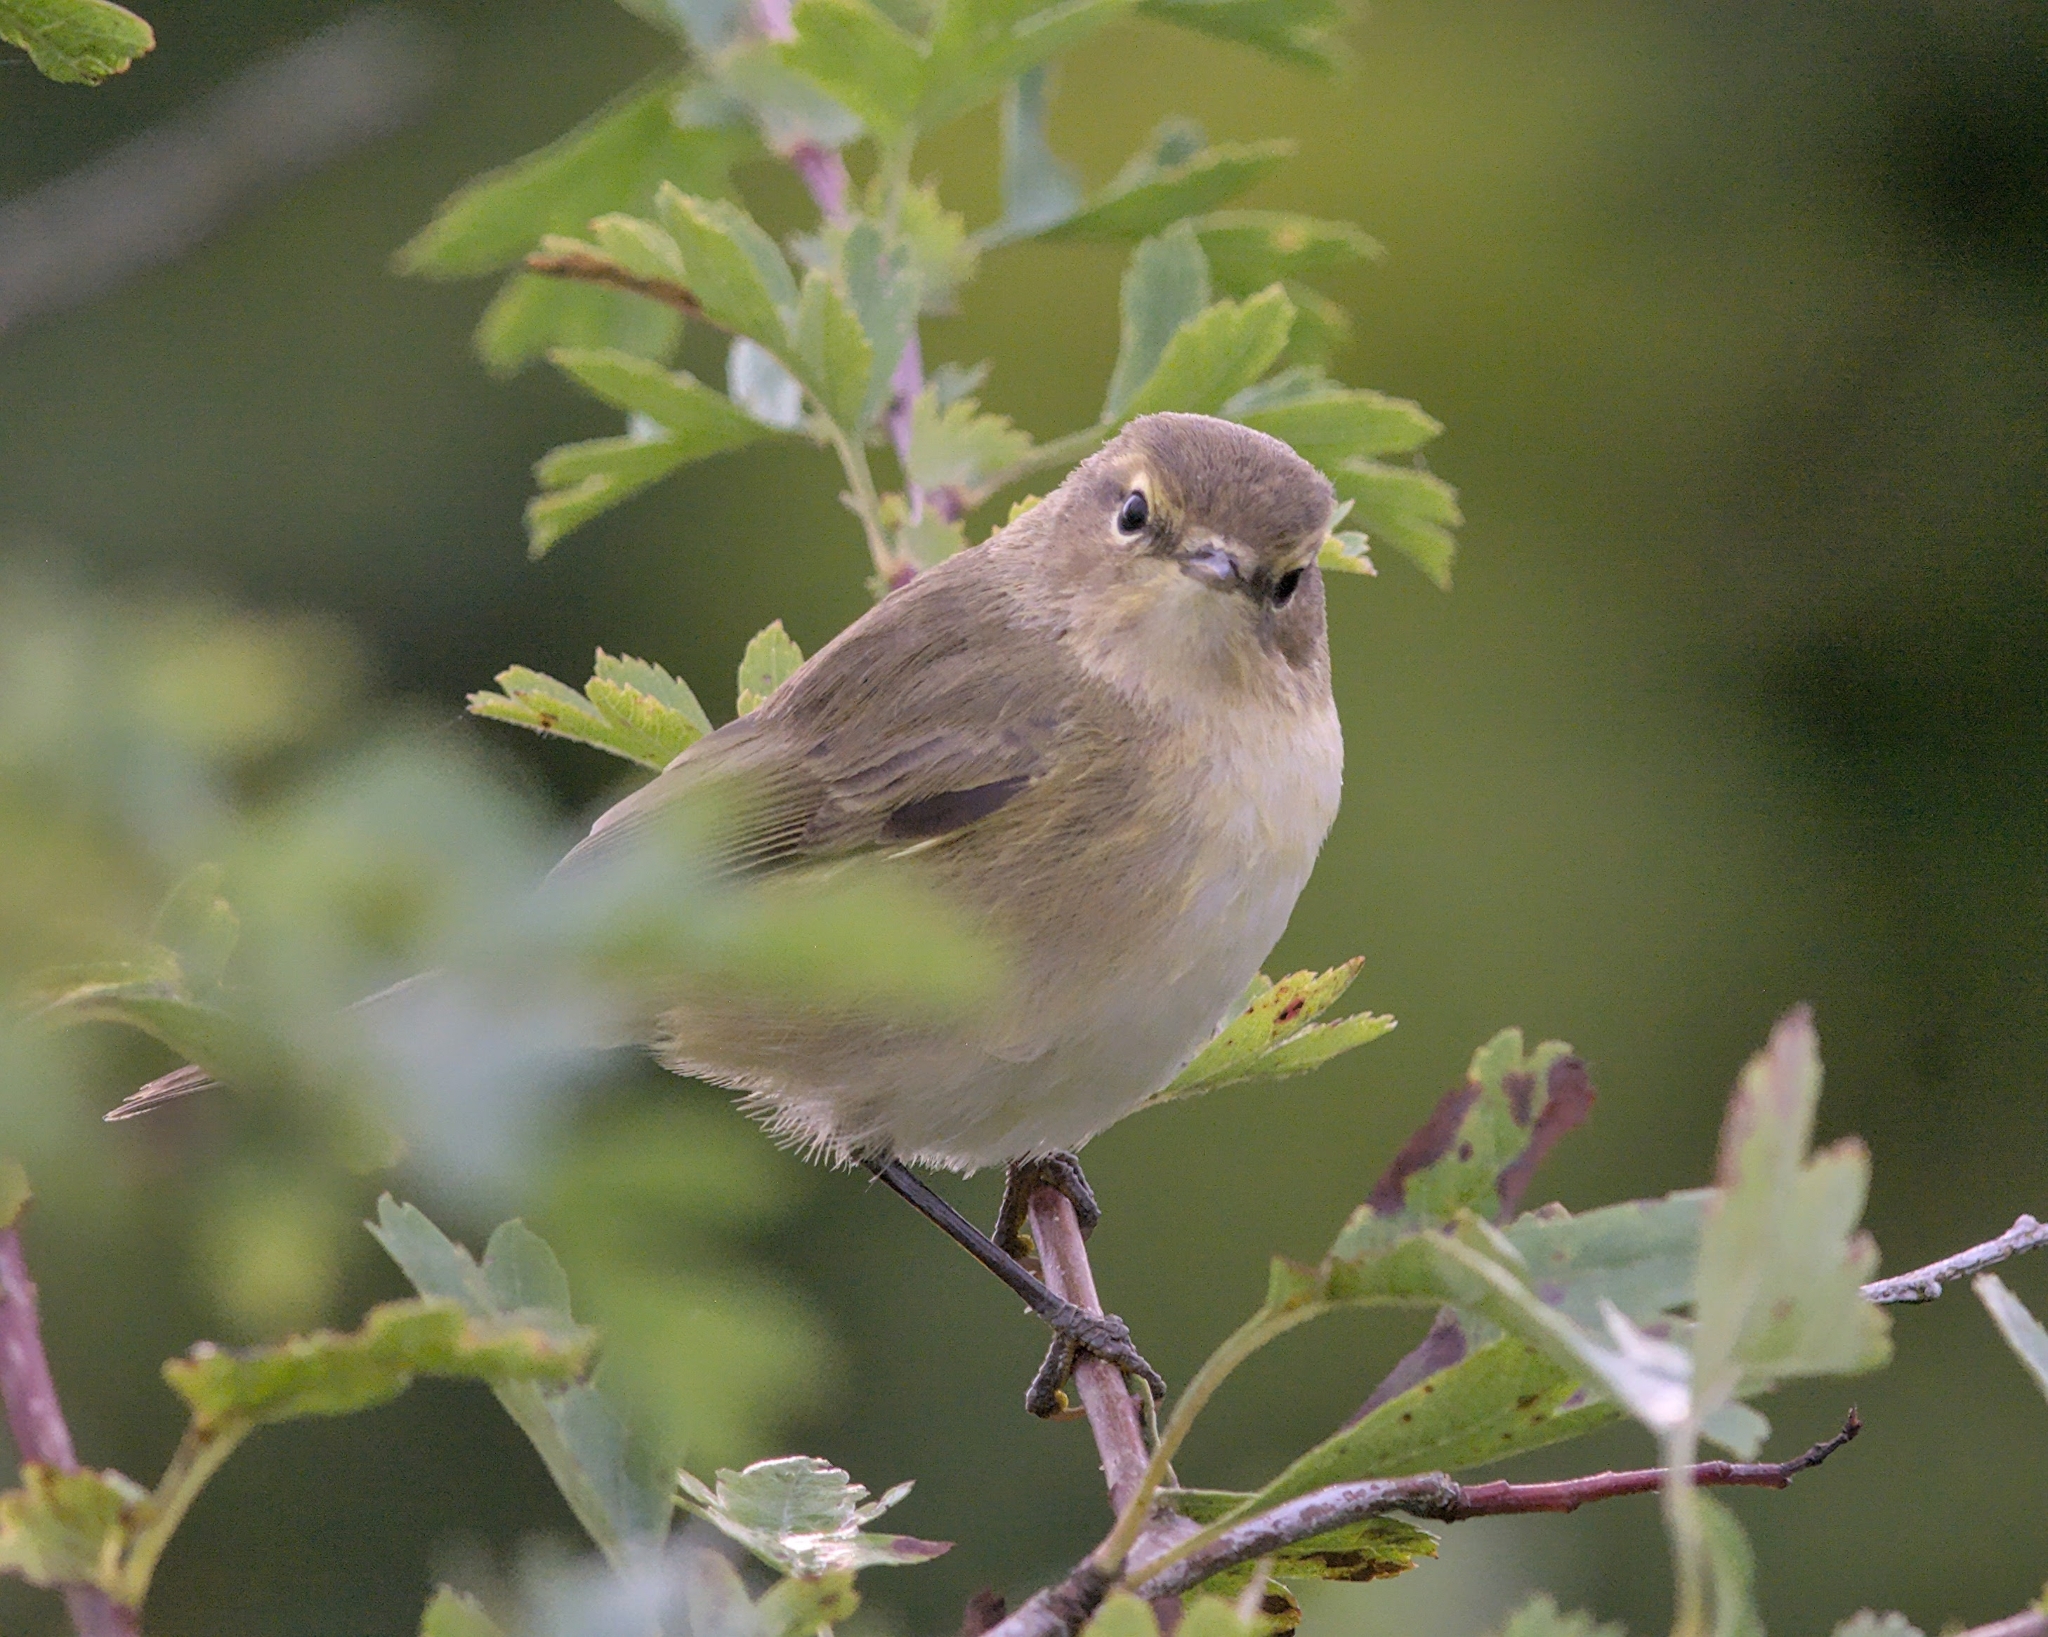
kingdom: Animalia
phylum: Chordata
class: Aves
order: Passeriformes
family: Phylloscopidae
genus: Phylloscopus
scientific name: Phylloscopus collybita
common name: Common chiffchaff
